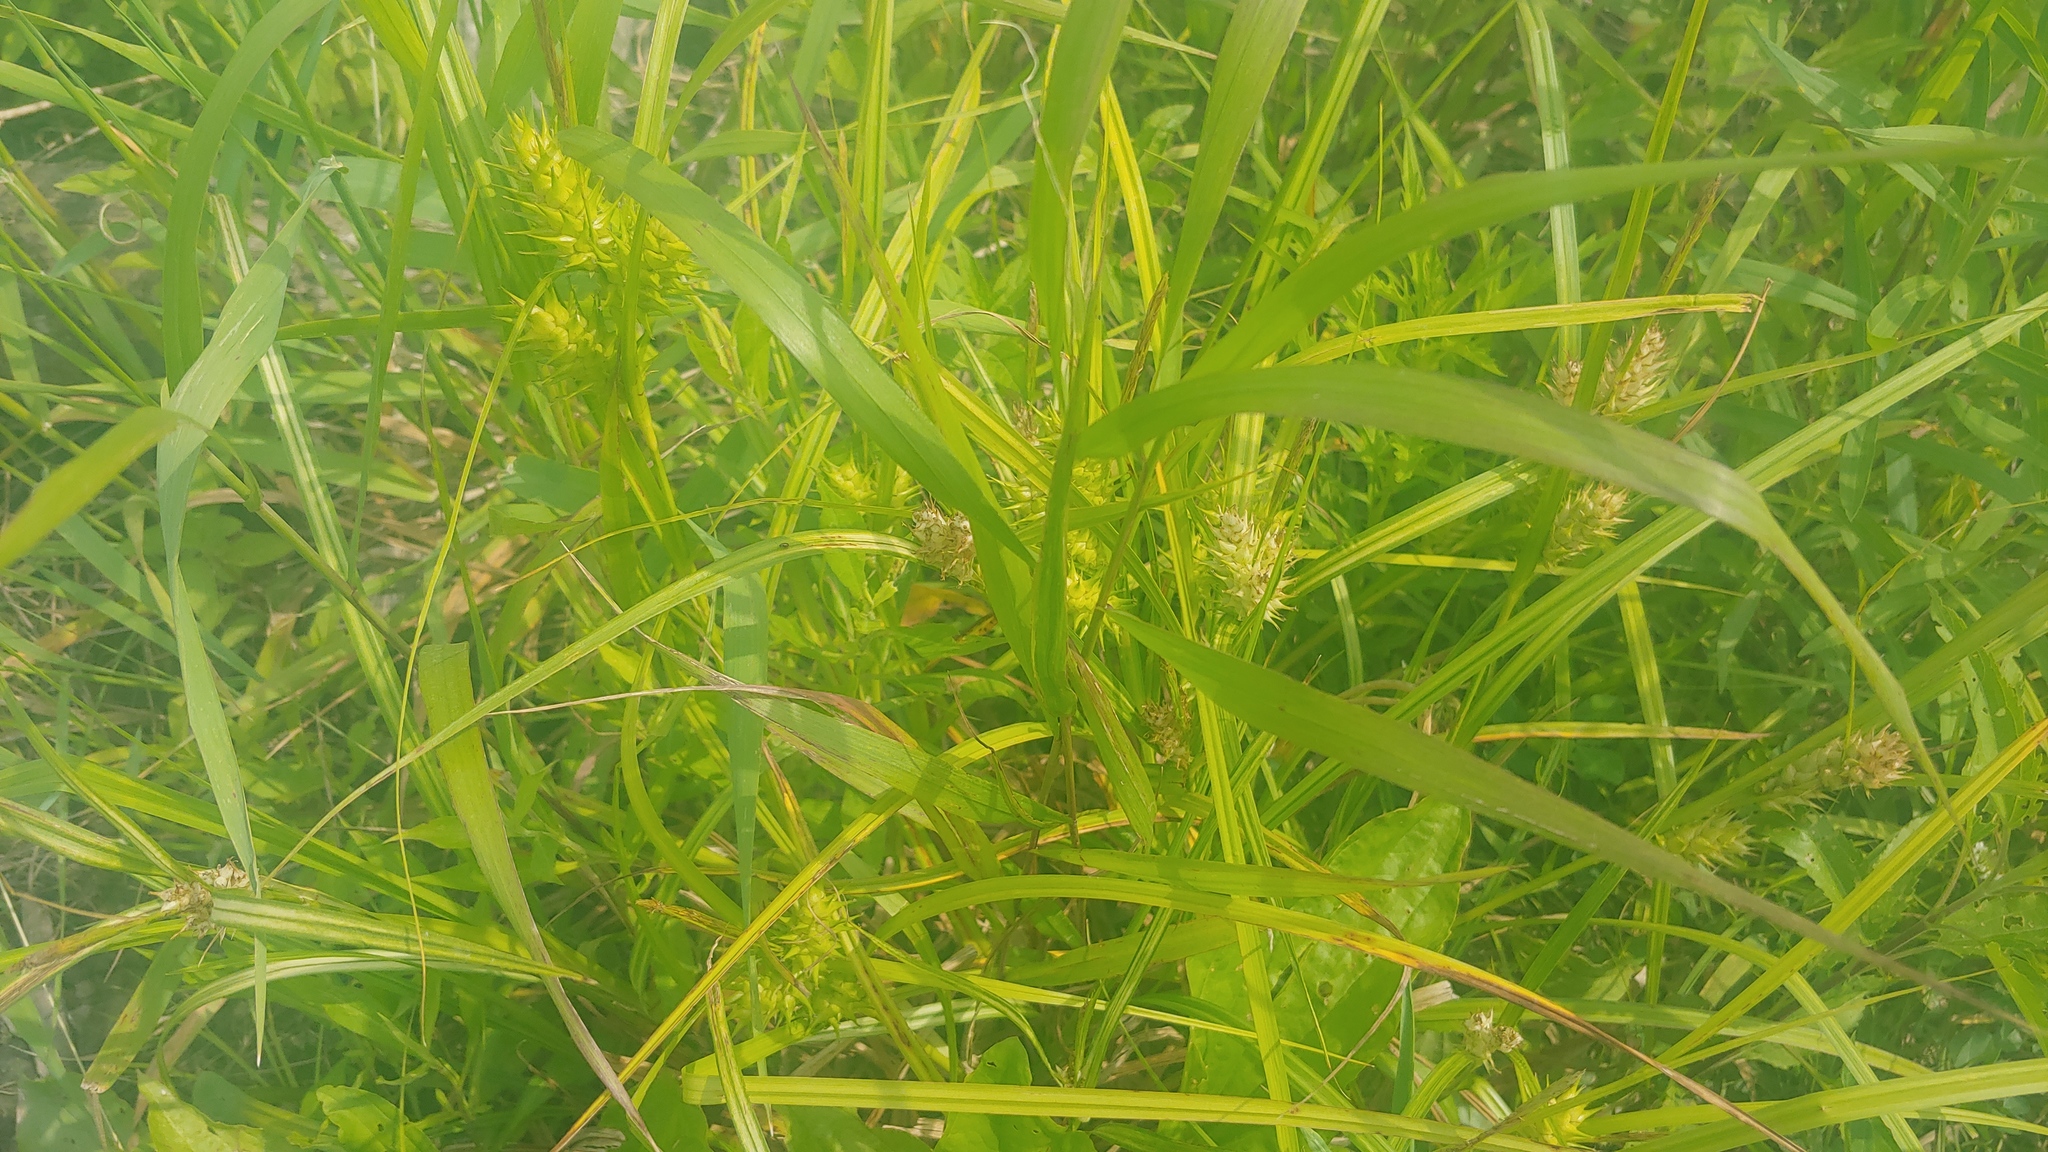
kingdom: Plantae
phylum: Tracheophyta
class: Liliopsida
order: Poales
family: Cyperaceae
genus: Carex
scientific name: Carex lupulina
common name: Hop sedge
